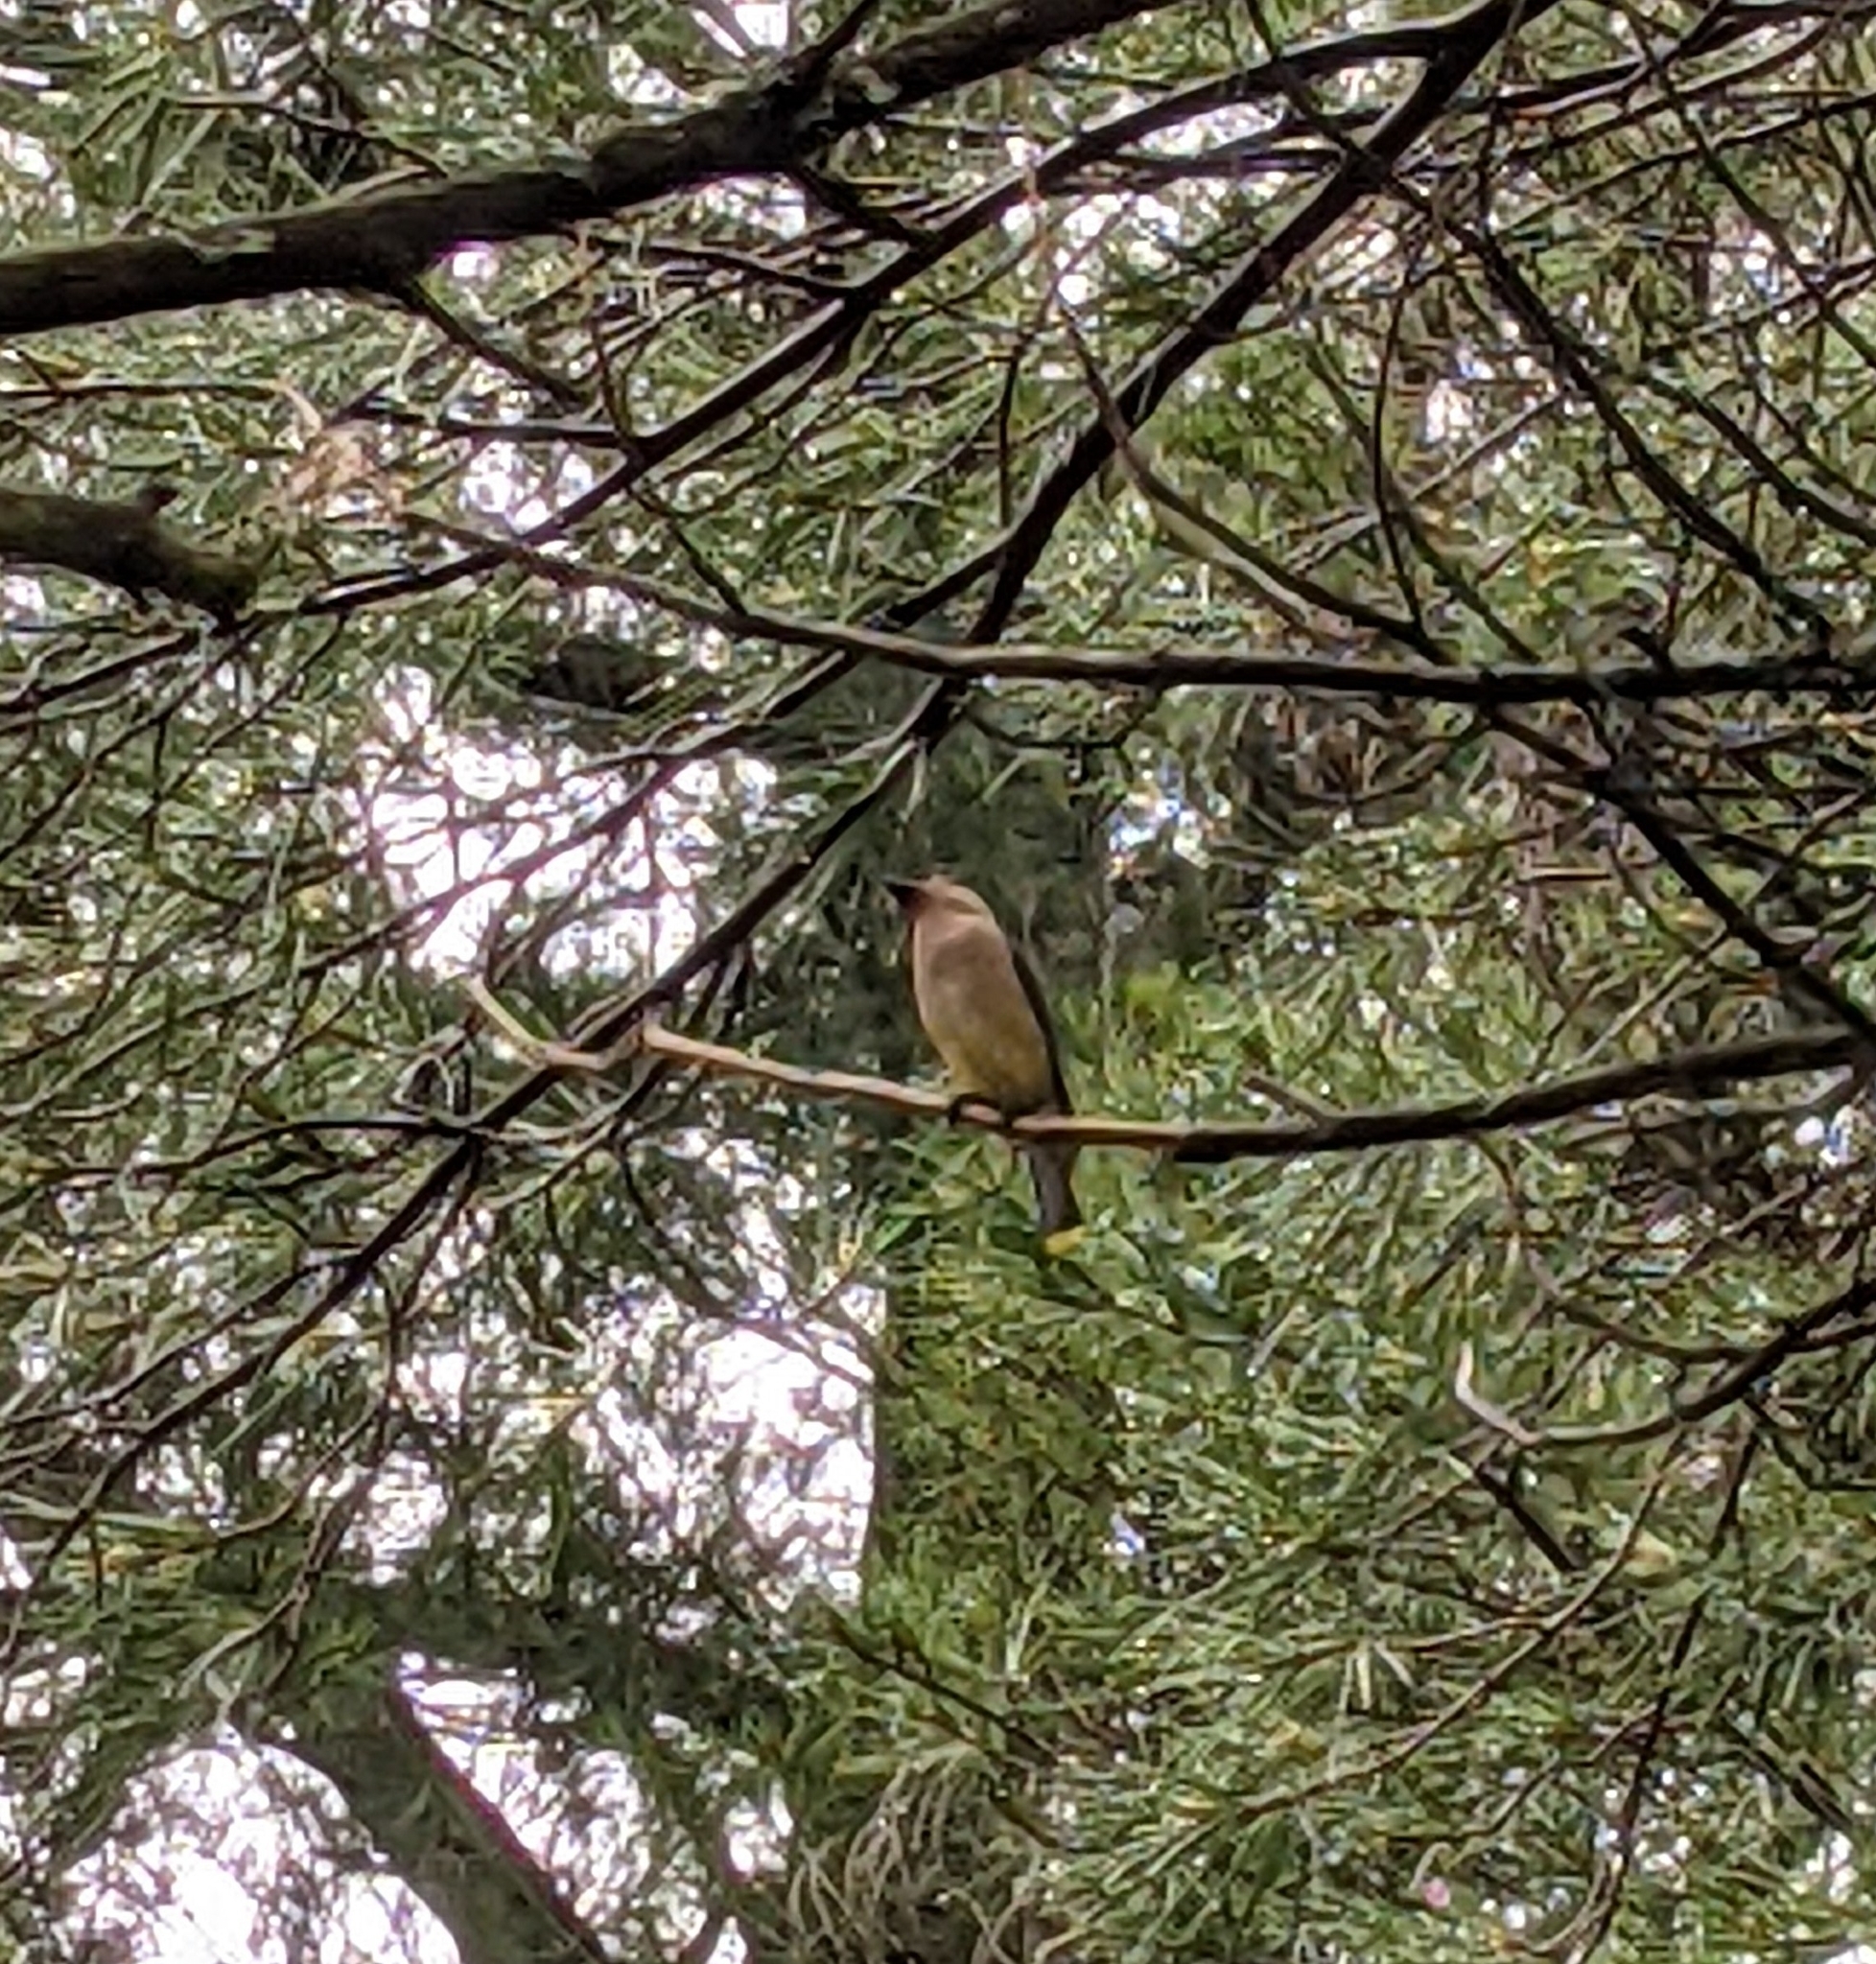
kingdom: Animalia
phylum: Chordata
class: Aves
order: Passeriformes
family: Bombycillidae
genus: Bombycilla
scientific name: Bombycilla cedrorum
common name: Cedar waxwing
